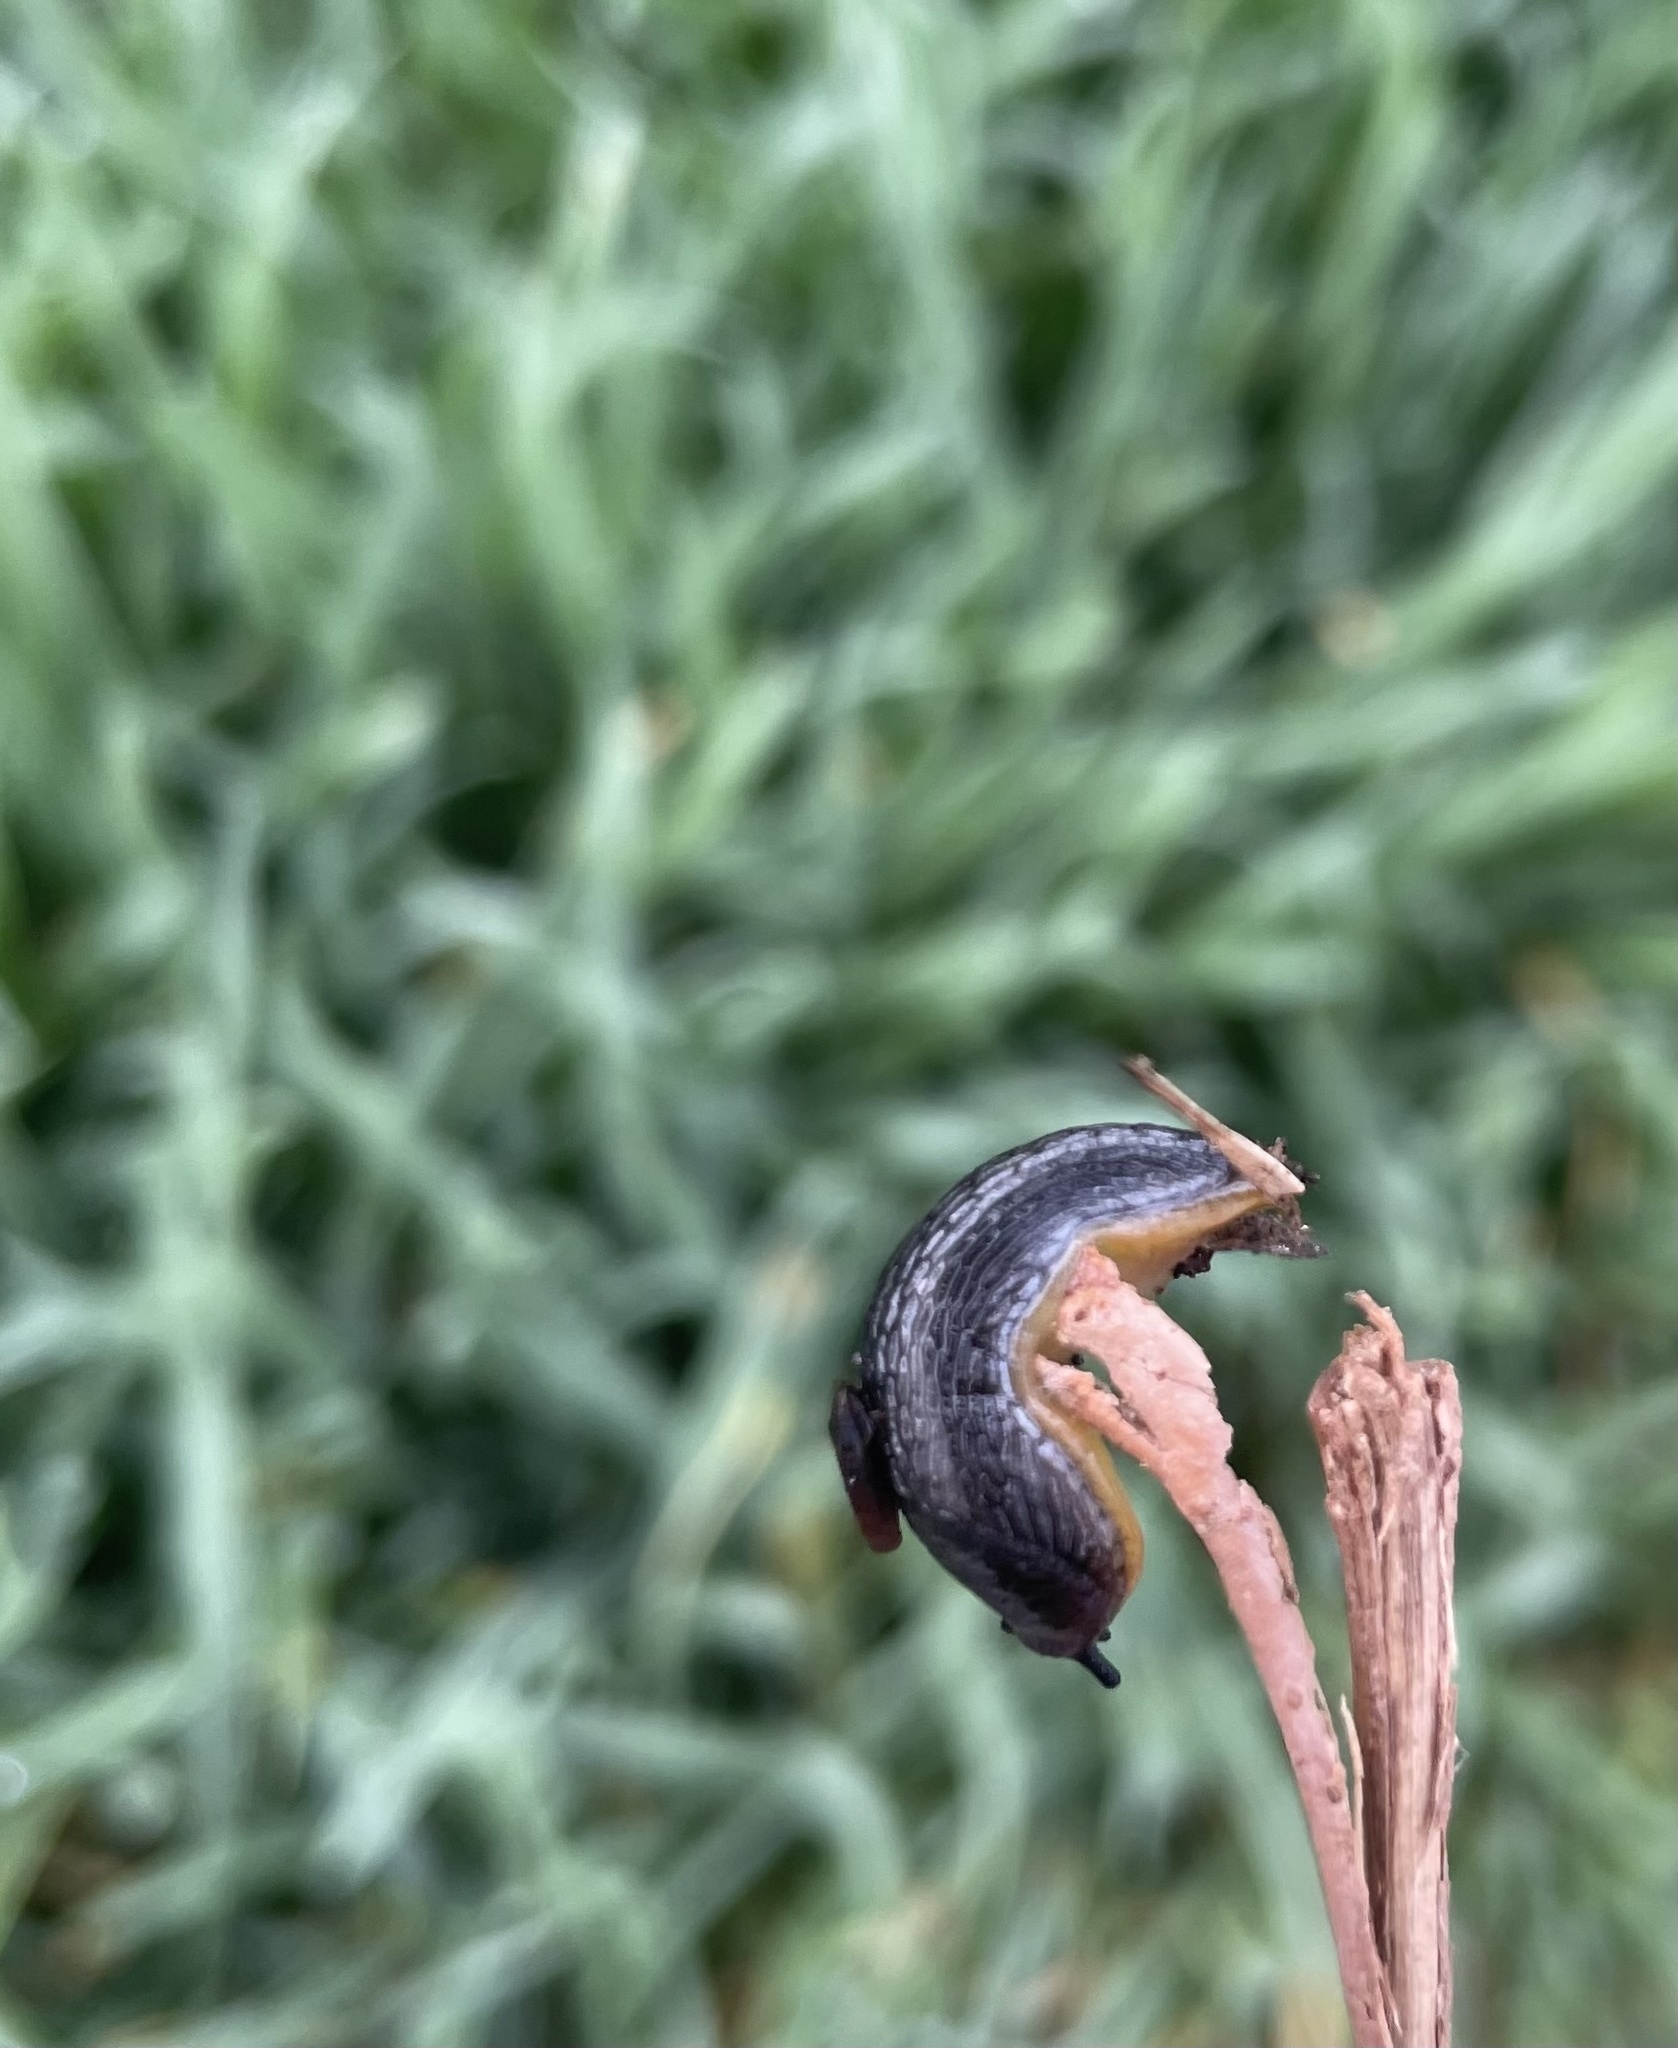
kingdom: Animalia
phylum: Mollusca
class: Gastropoda
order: Stylommatophora
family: Arionidae
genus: Arion
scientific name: Arion hortensis
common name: Garden arion
